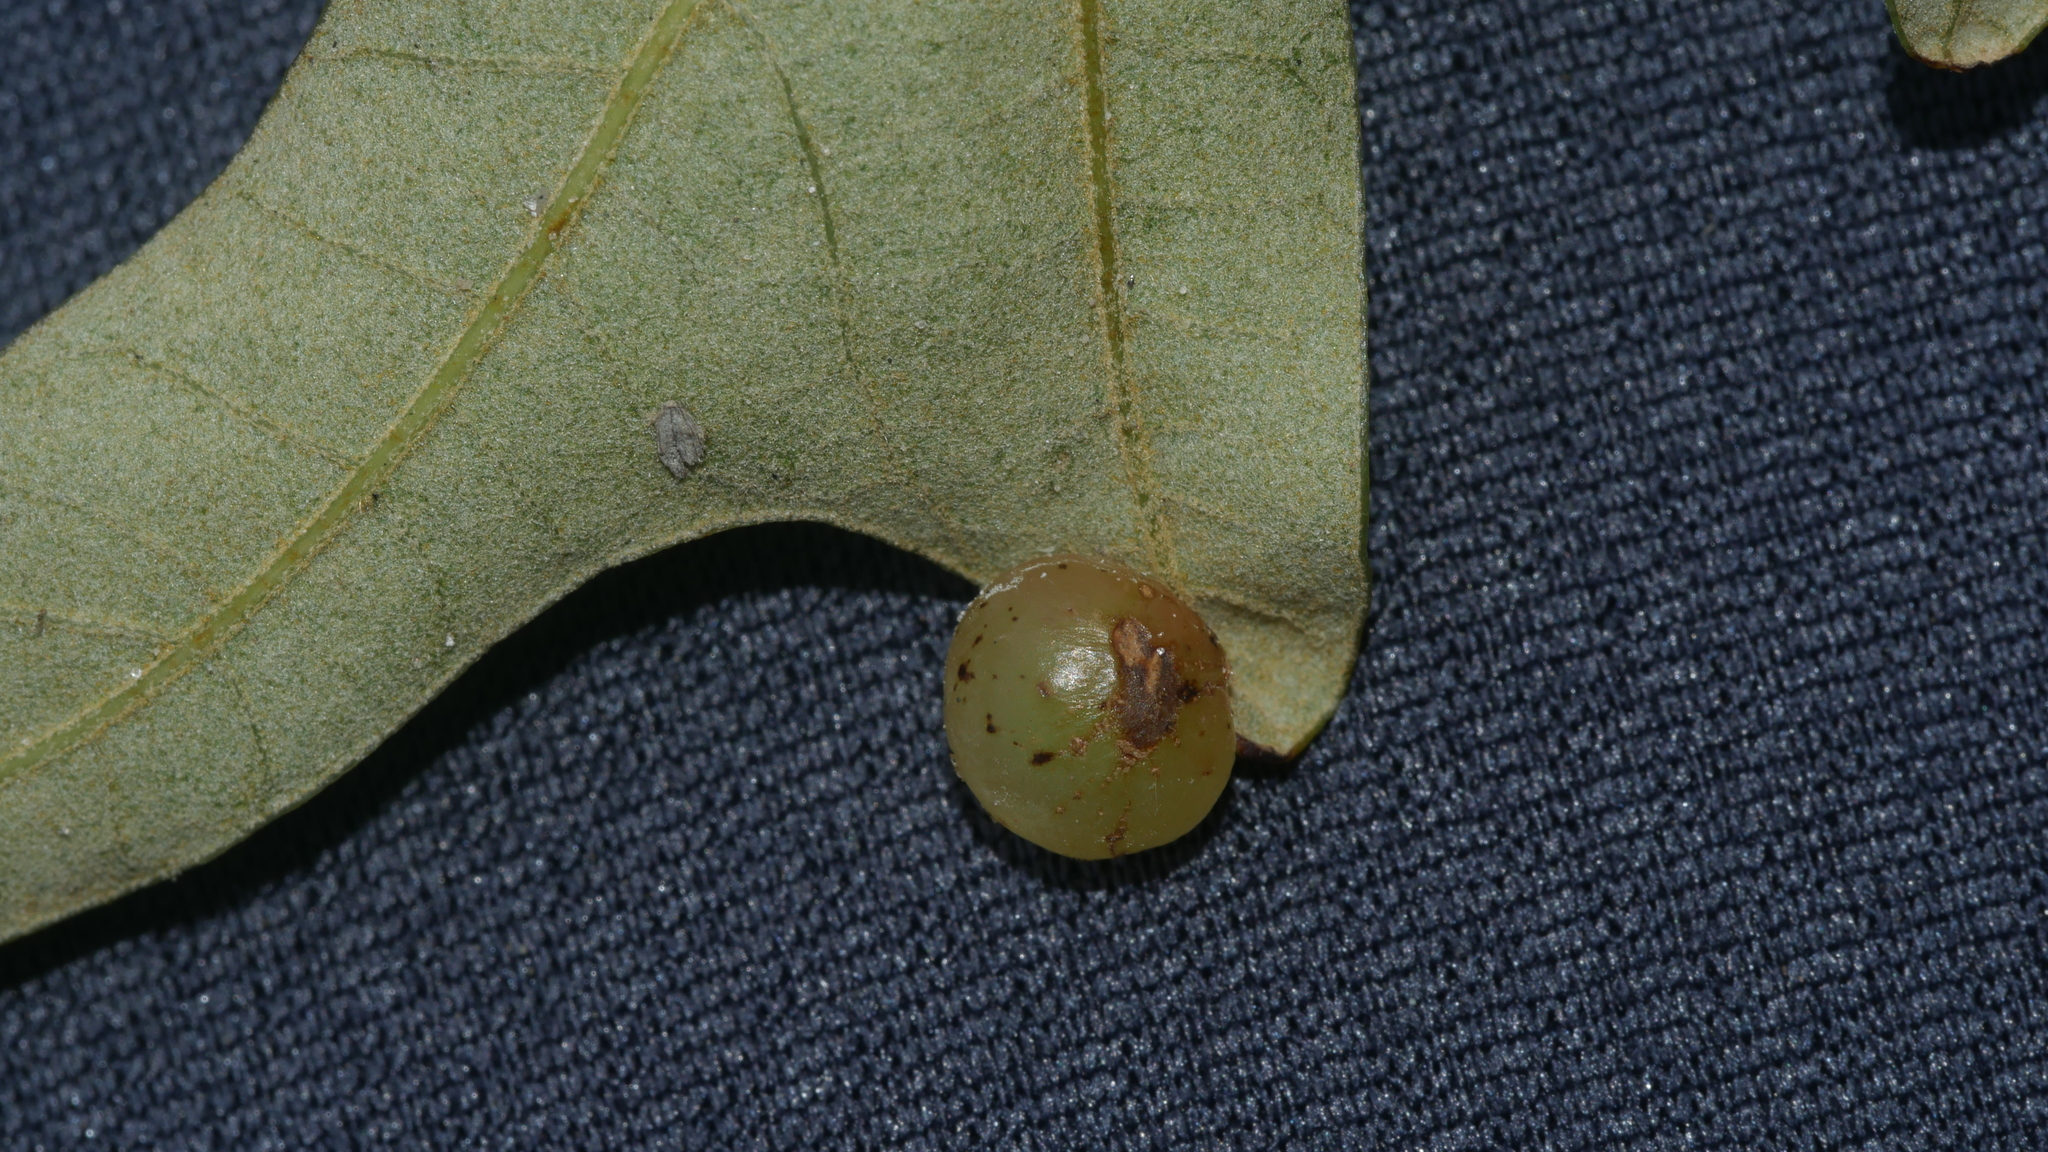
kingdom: Animalia
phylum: Arthropoda
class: Insecta
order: Hymenoptera
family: Cynipidae
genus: Amphibolips
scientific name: Amphibolips
